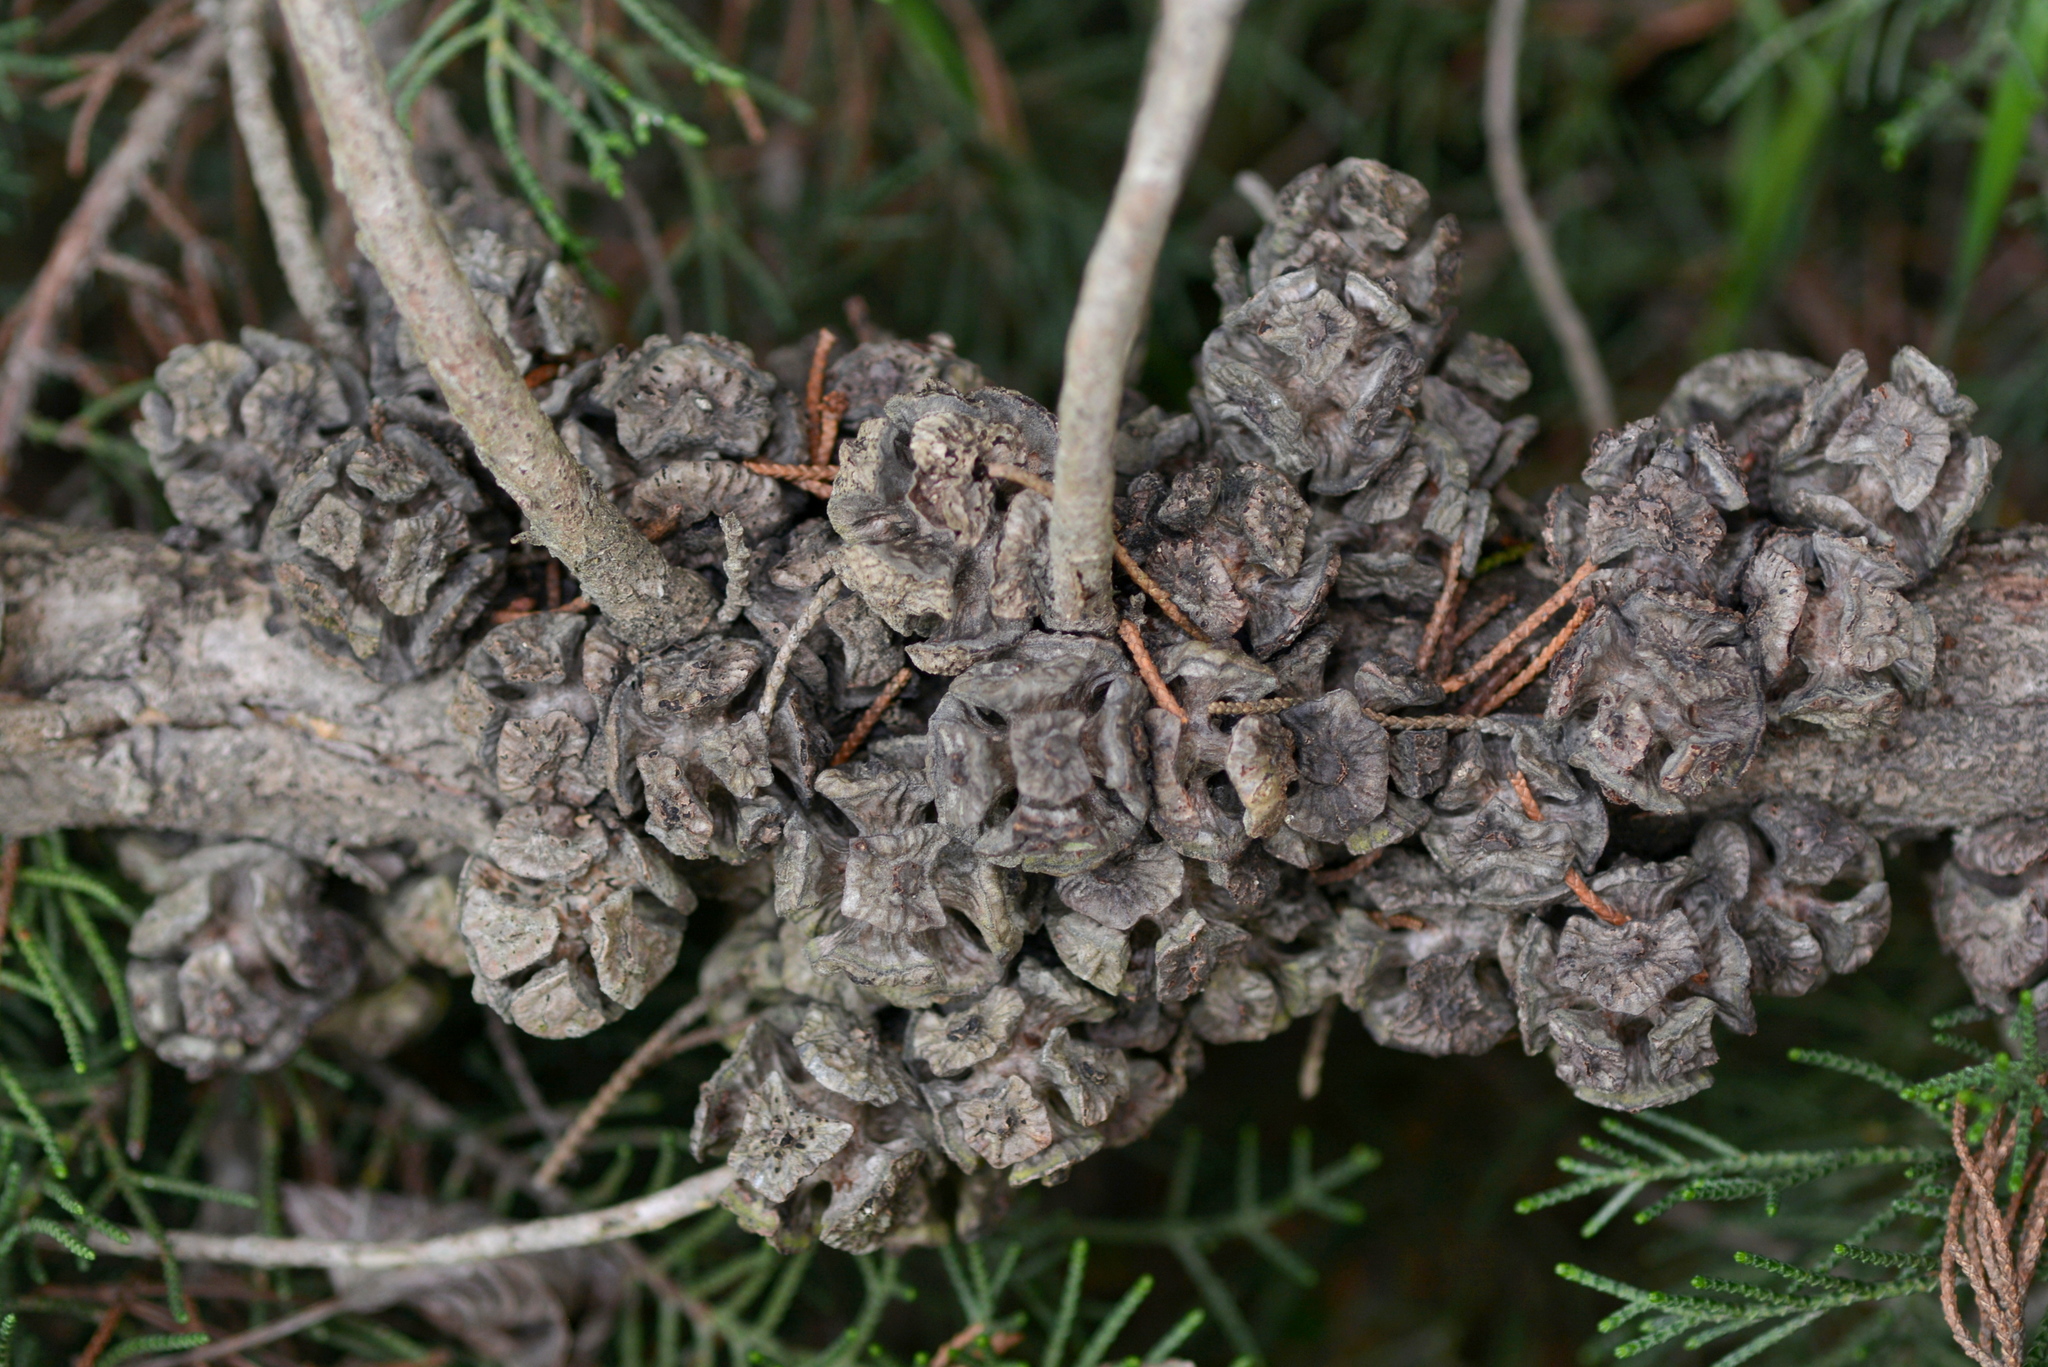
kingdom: Plantae
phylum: Tracheophyta
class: Pinopsida
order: Pinales
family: Cupressaceae
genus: Cupressus
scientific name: Cupressus macrocarpa
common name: Monterey cypress
